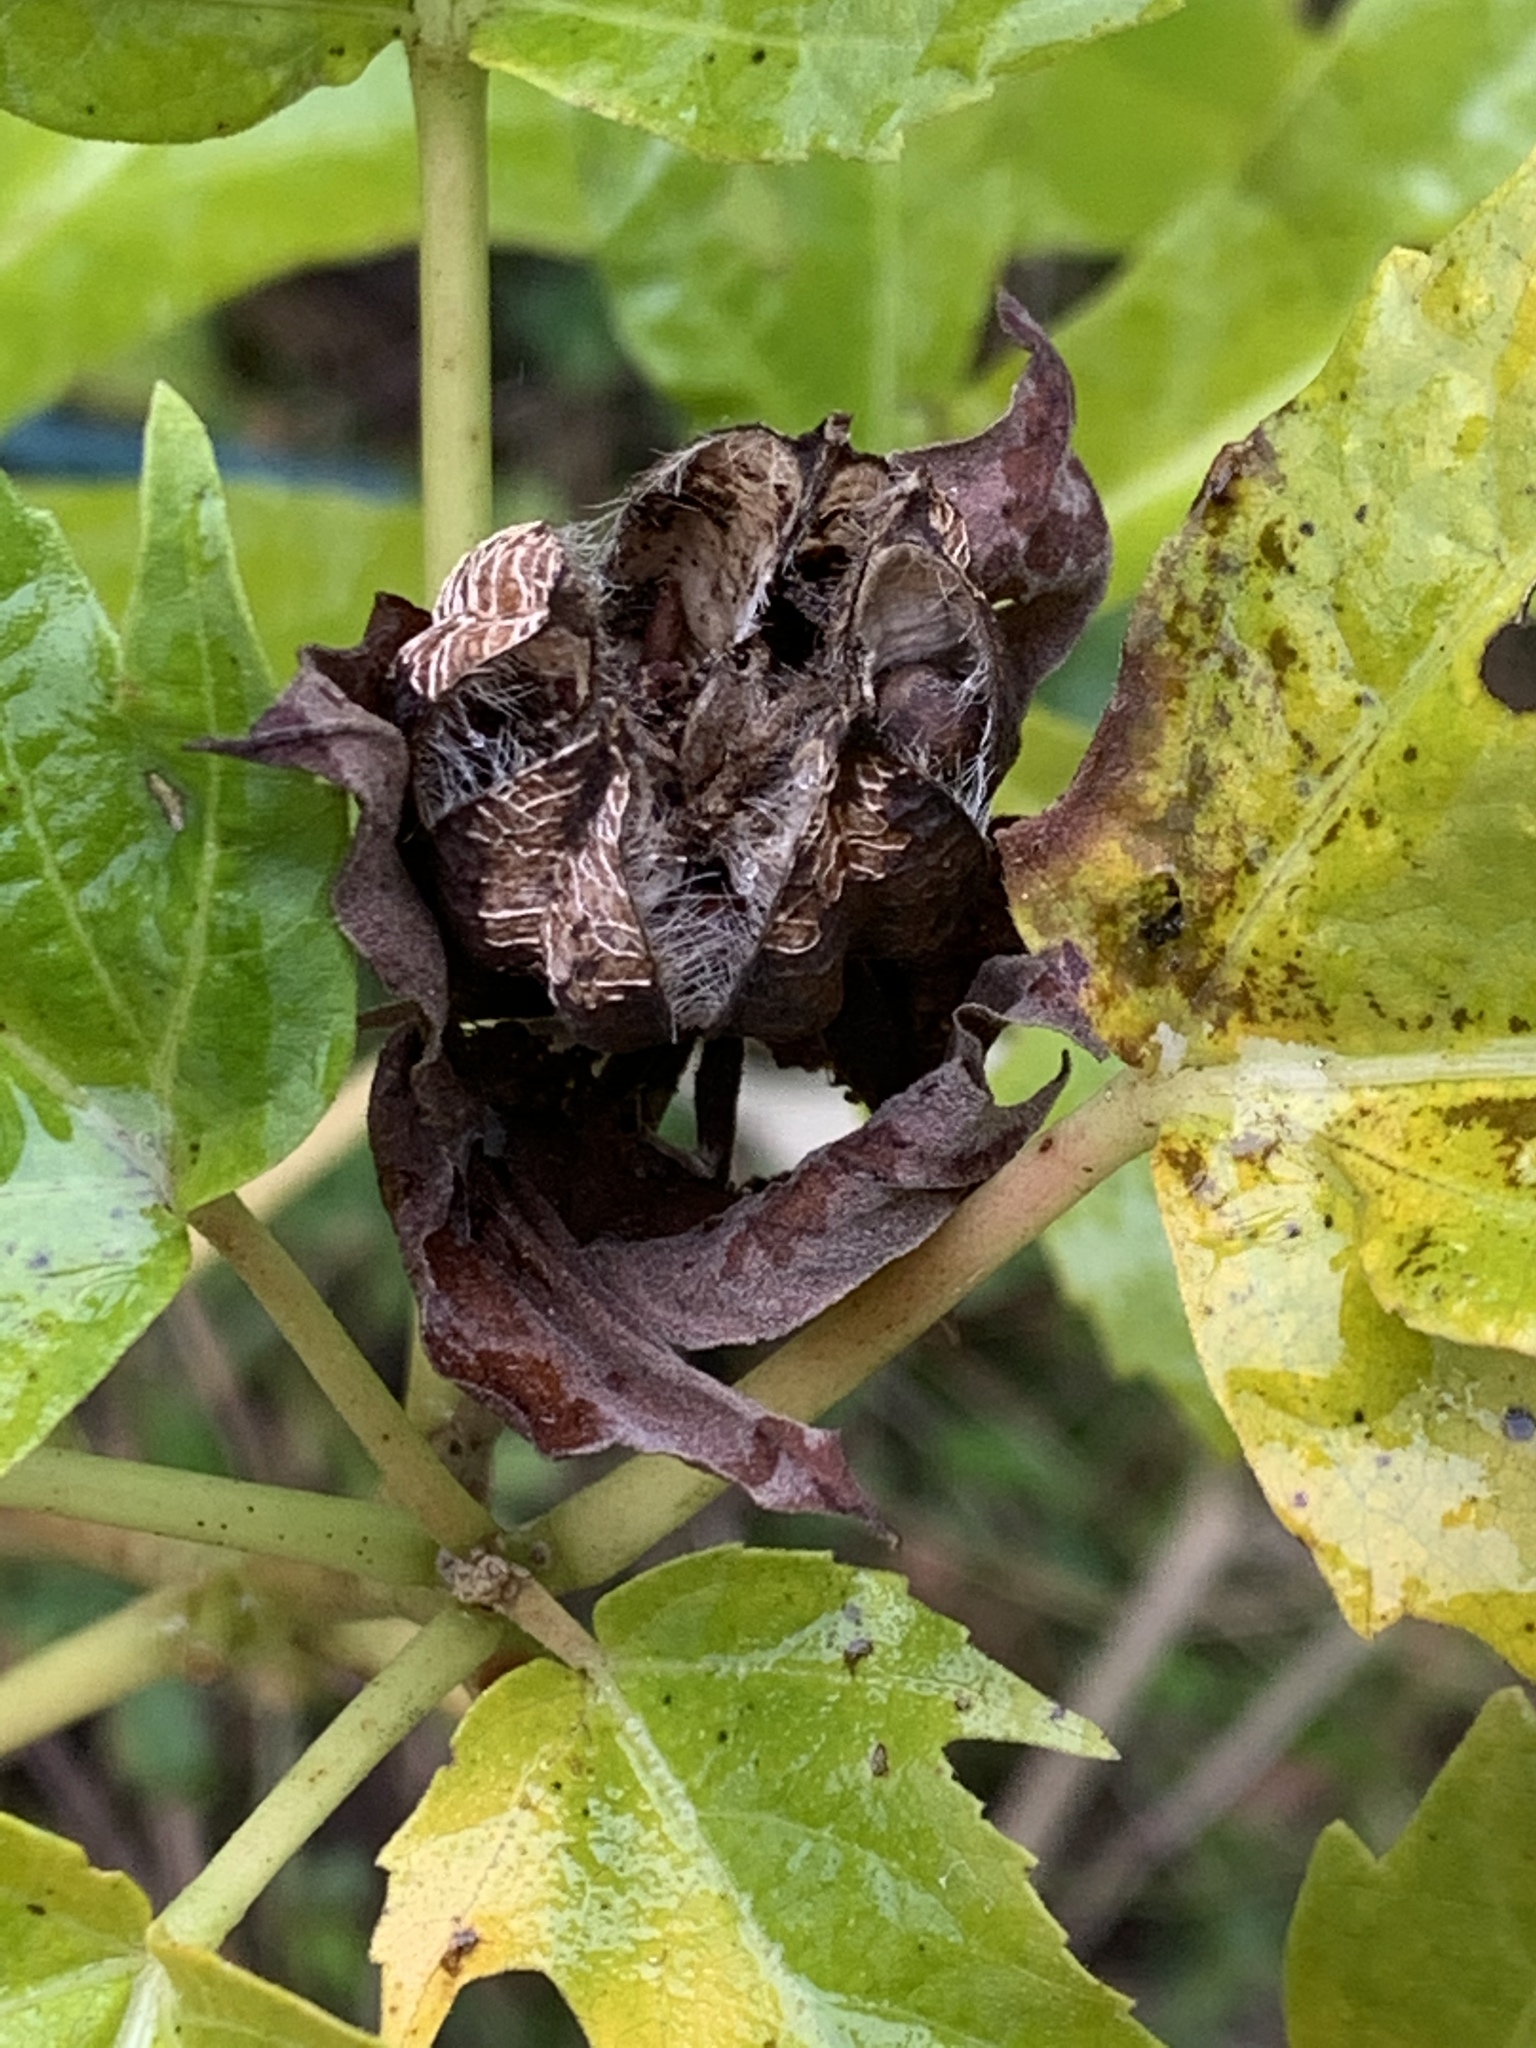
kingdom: Plantae
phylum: Tracheophyta
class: Magnoliopsida
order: Malvales
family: Malvaceae
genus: Hibiscus
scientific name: Hibiscus moscheutos
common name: Common rose-mallow
